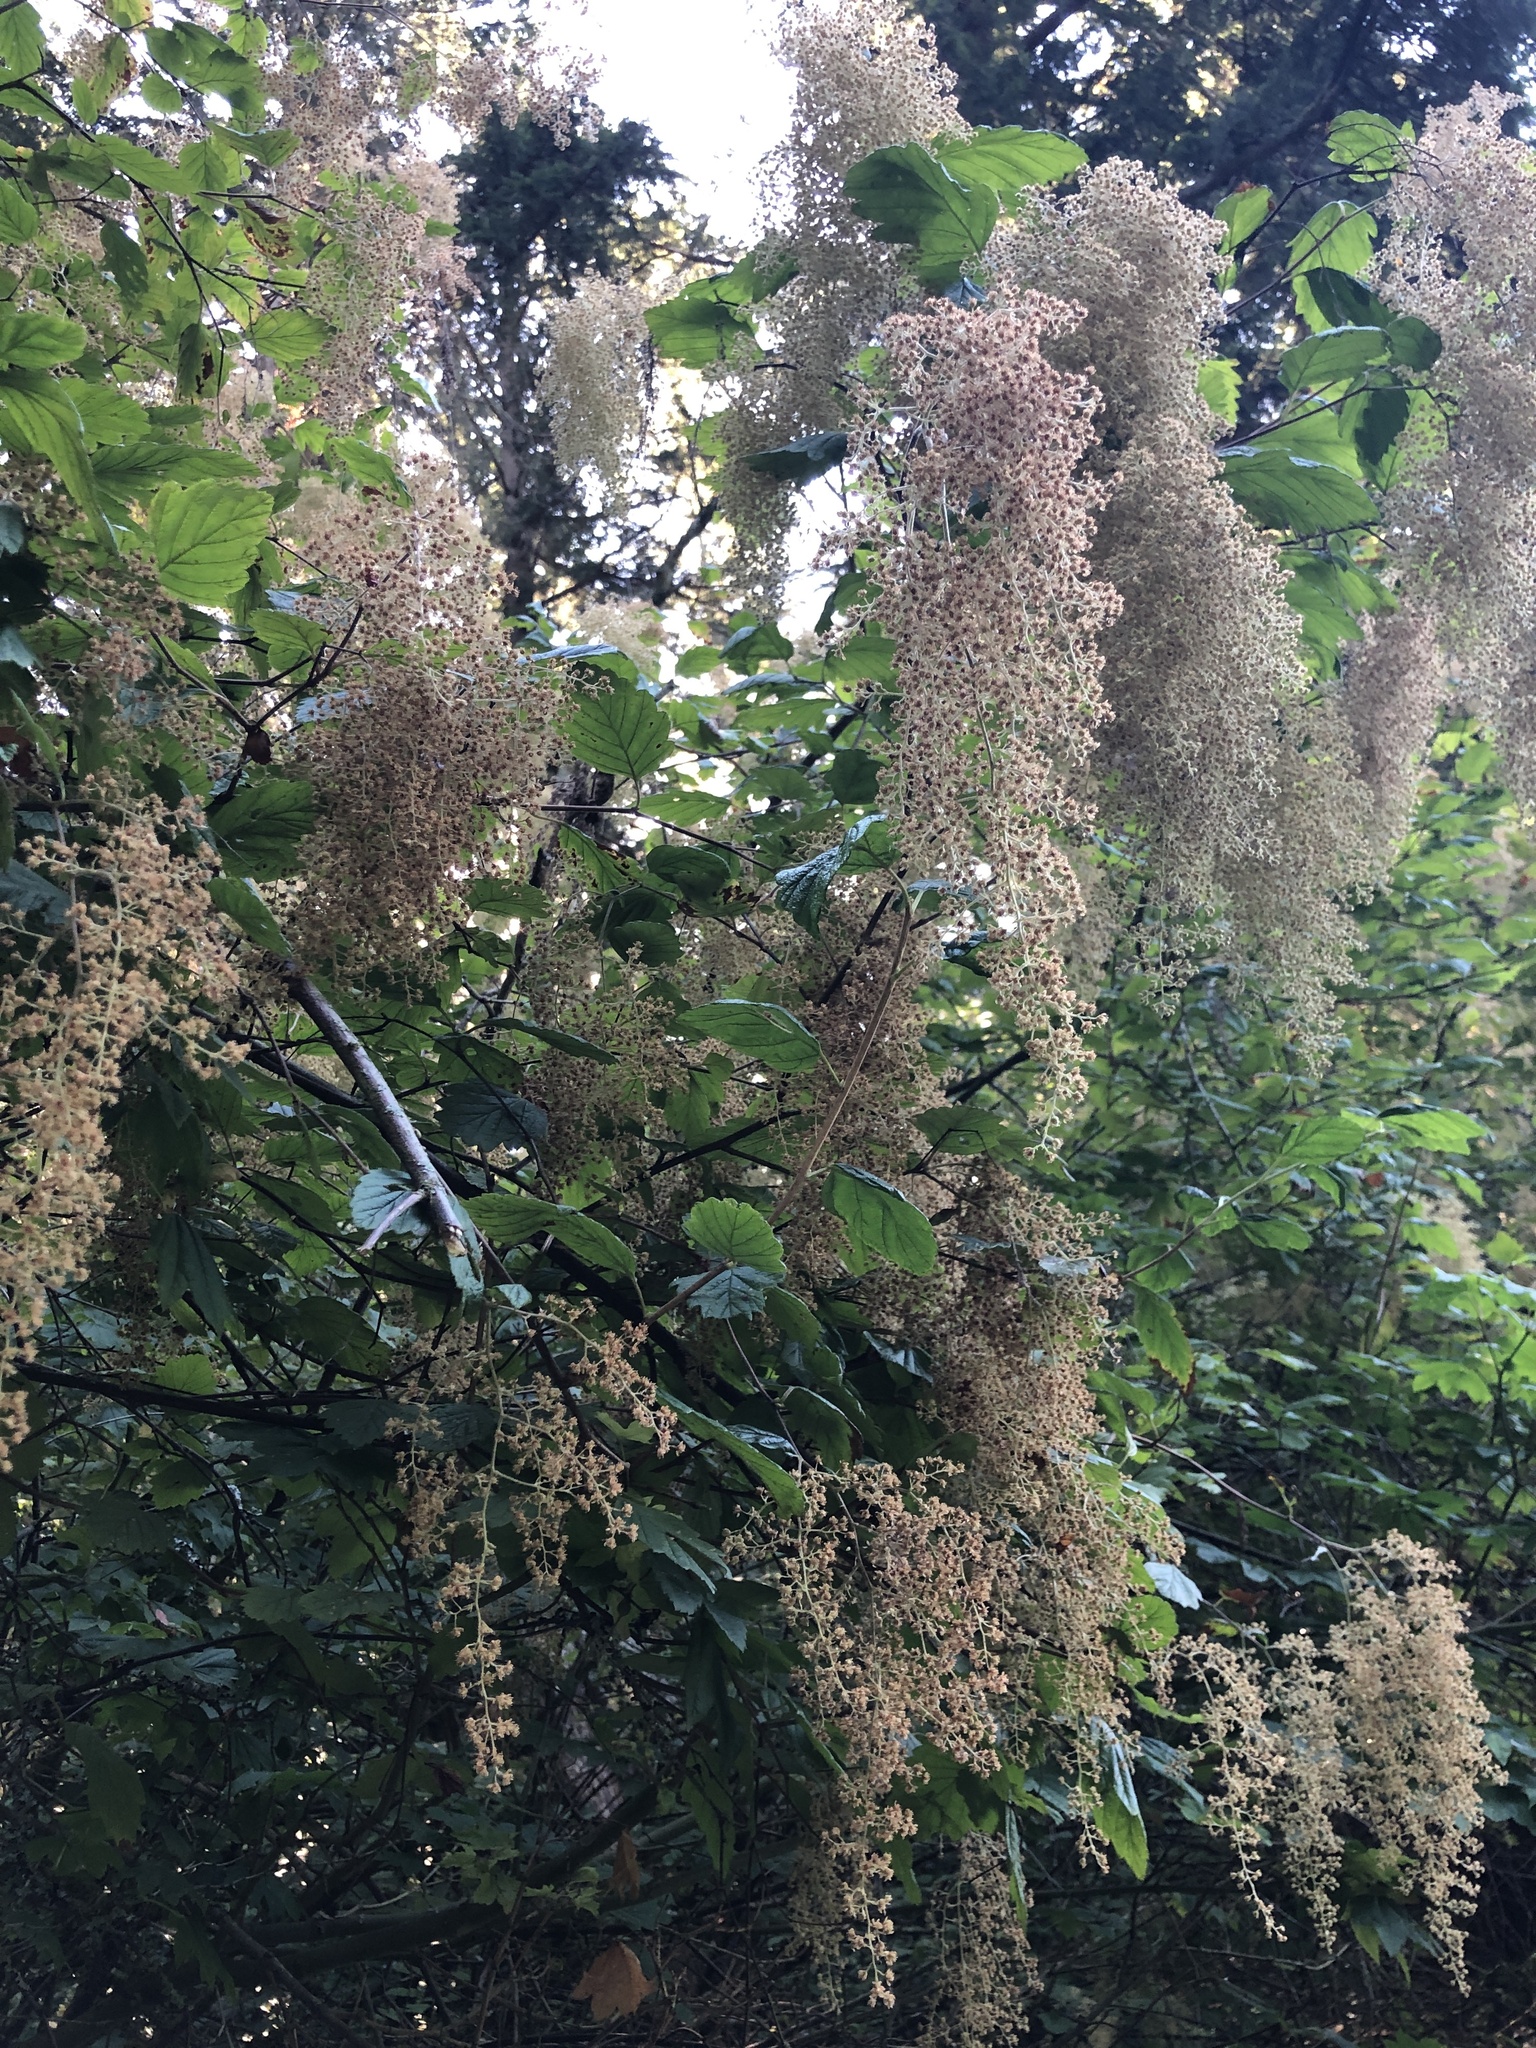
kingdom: Plantae
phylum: Tracheophyta
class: Magnoliopsida
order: Rosales
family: Rosaceae
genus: Holodiscus
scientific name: Holodiscus discolor
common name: Oceanspray
